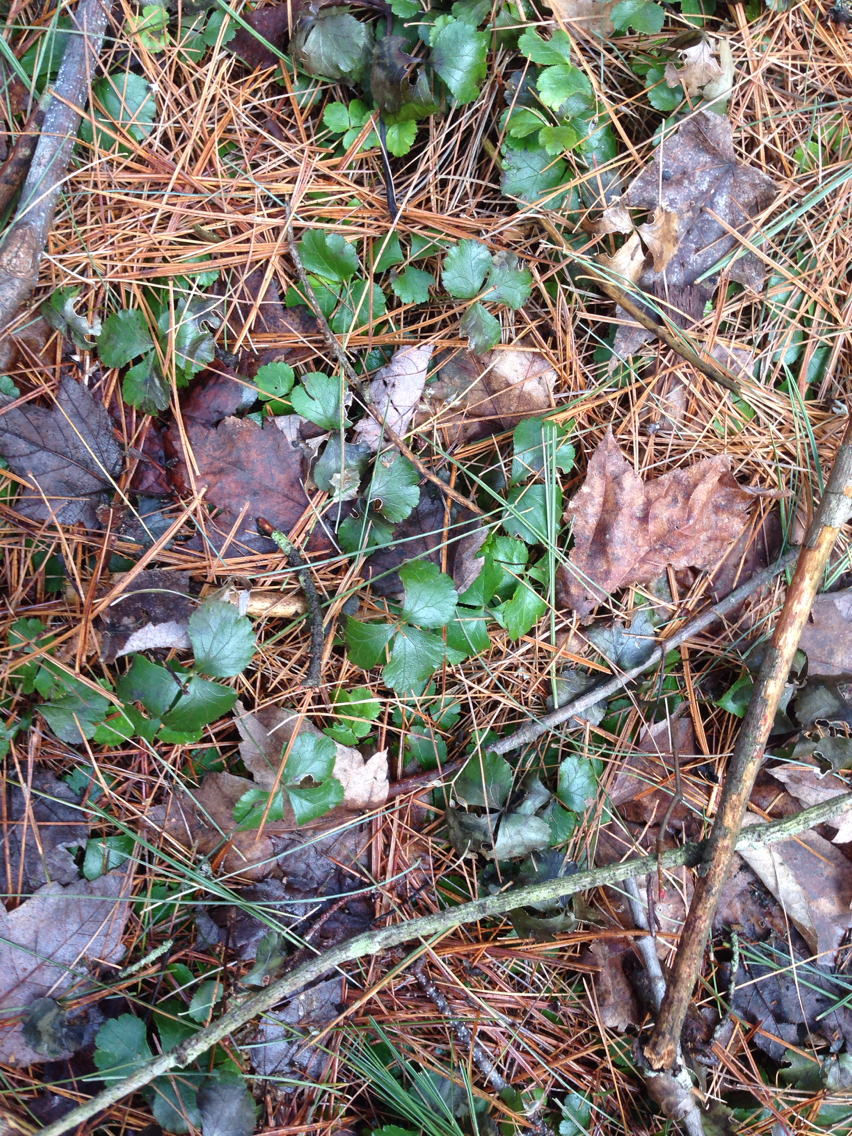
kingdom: Plantae
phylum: Tracheophyta
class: Magnoliopsida
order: Ranunculales
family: Ranunculaceae
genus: Coptis
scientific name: Coptis trifolia
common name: Canker-root
